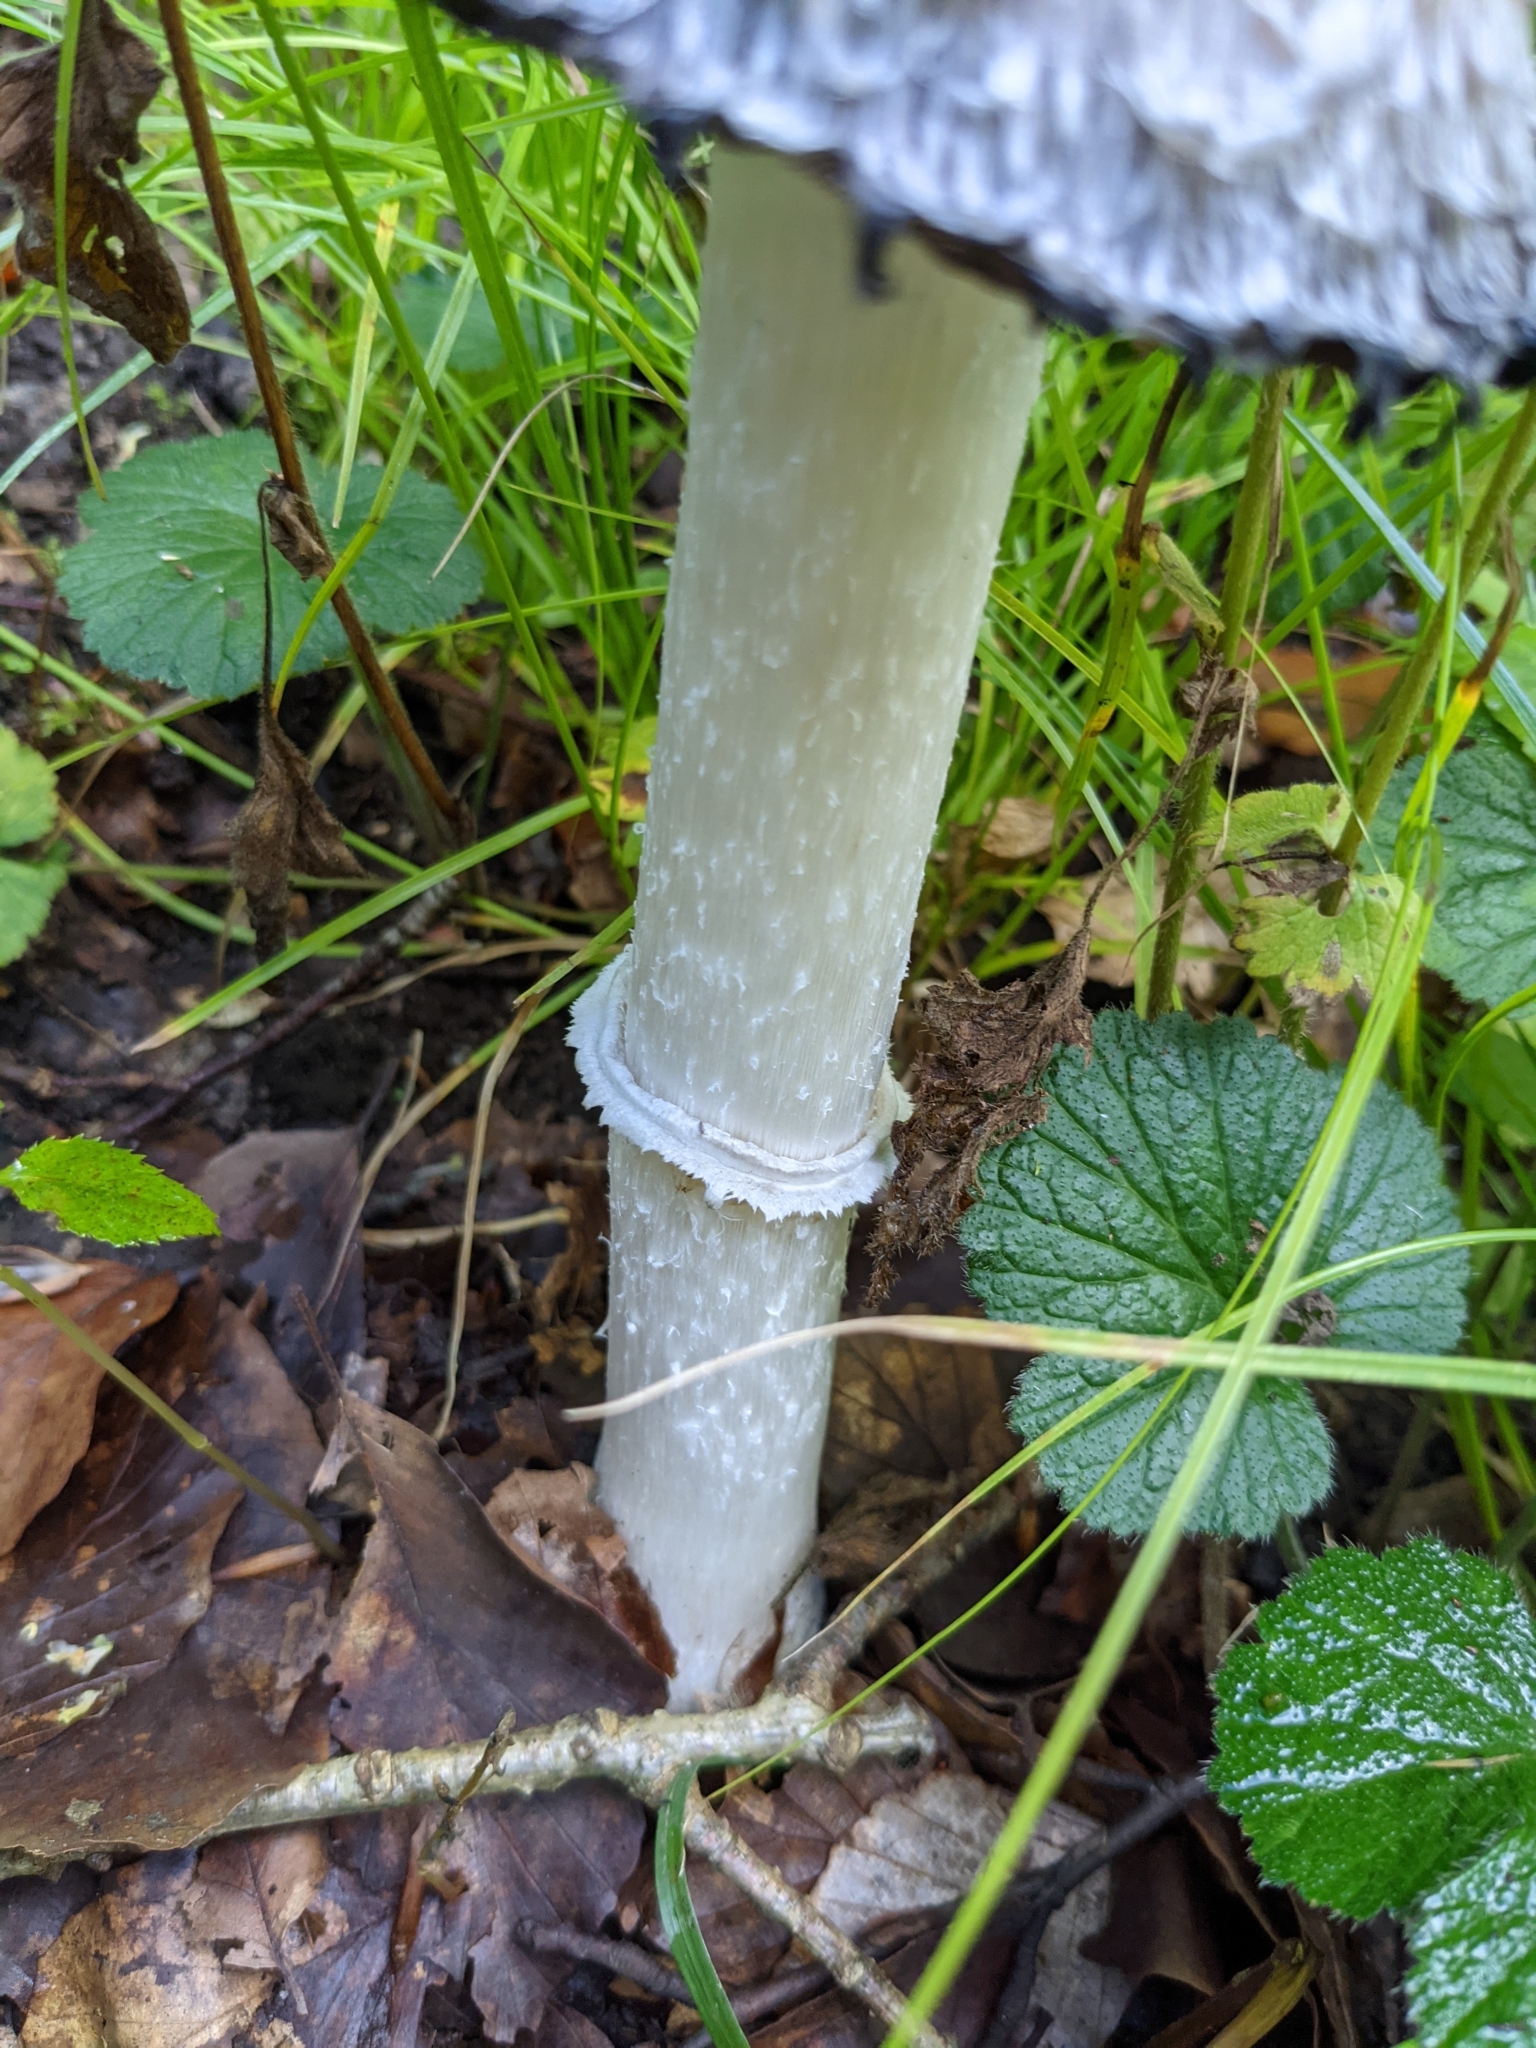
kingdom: Fungi
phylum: Basidiomycota
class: Agaricomycetes
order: Agaricales
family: Agaricaceae
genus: Coprinus
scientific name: Coprinus comatus
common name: Lawyer's wig
